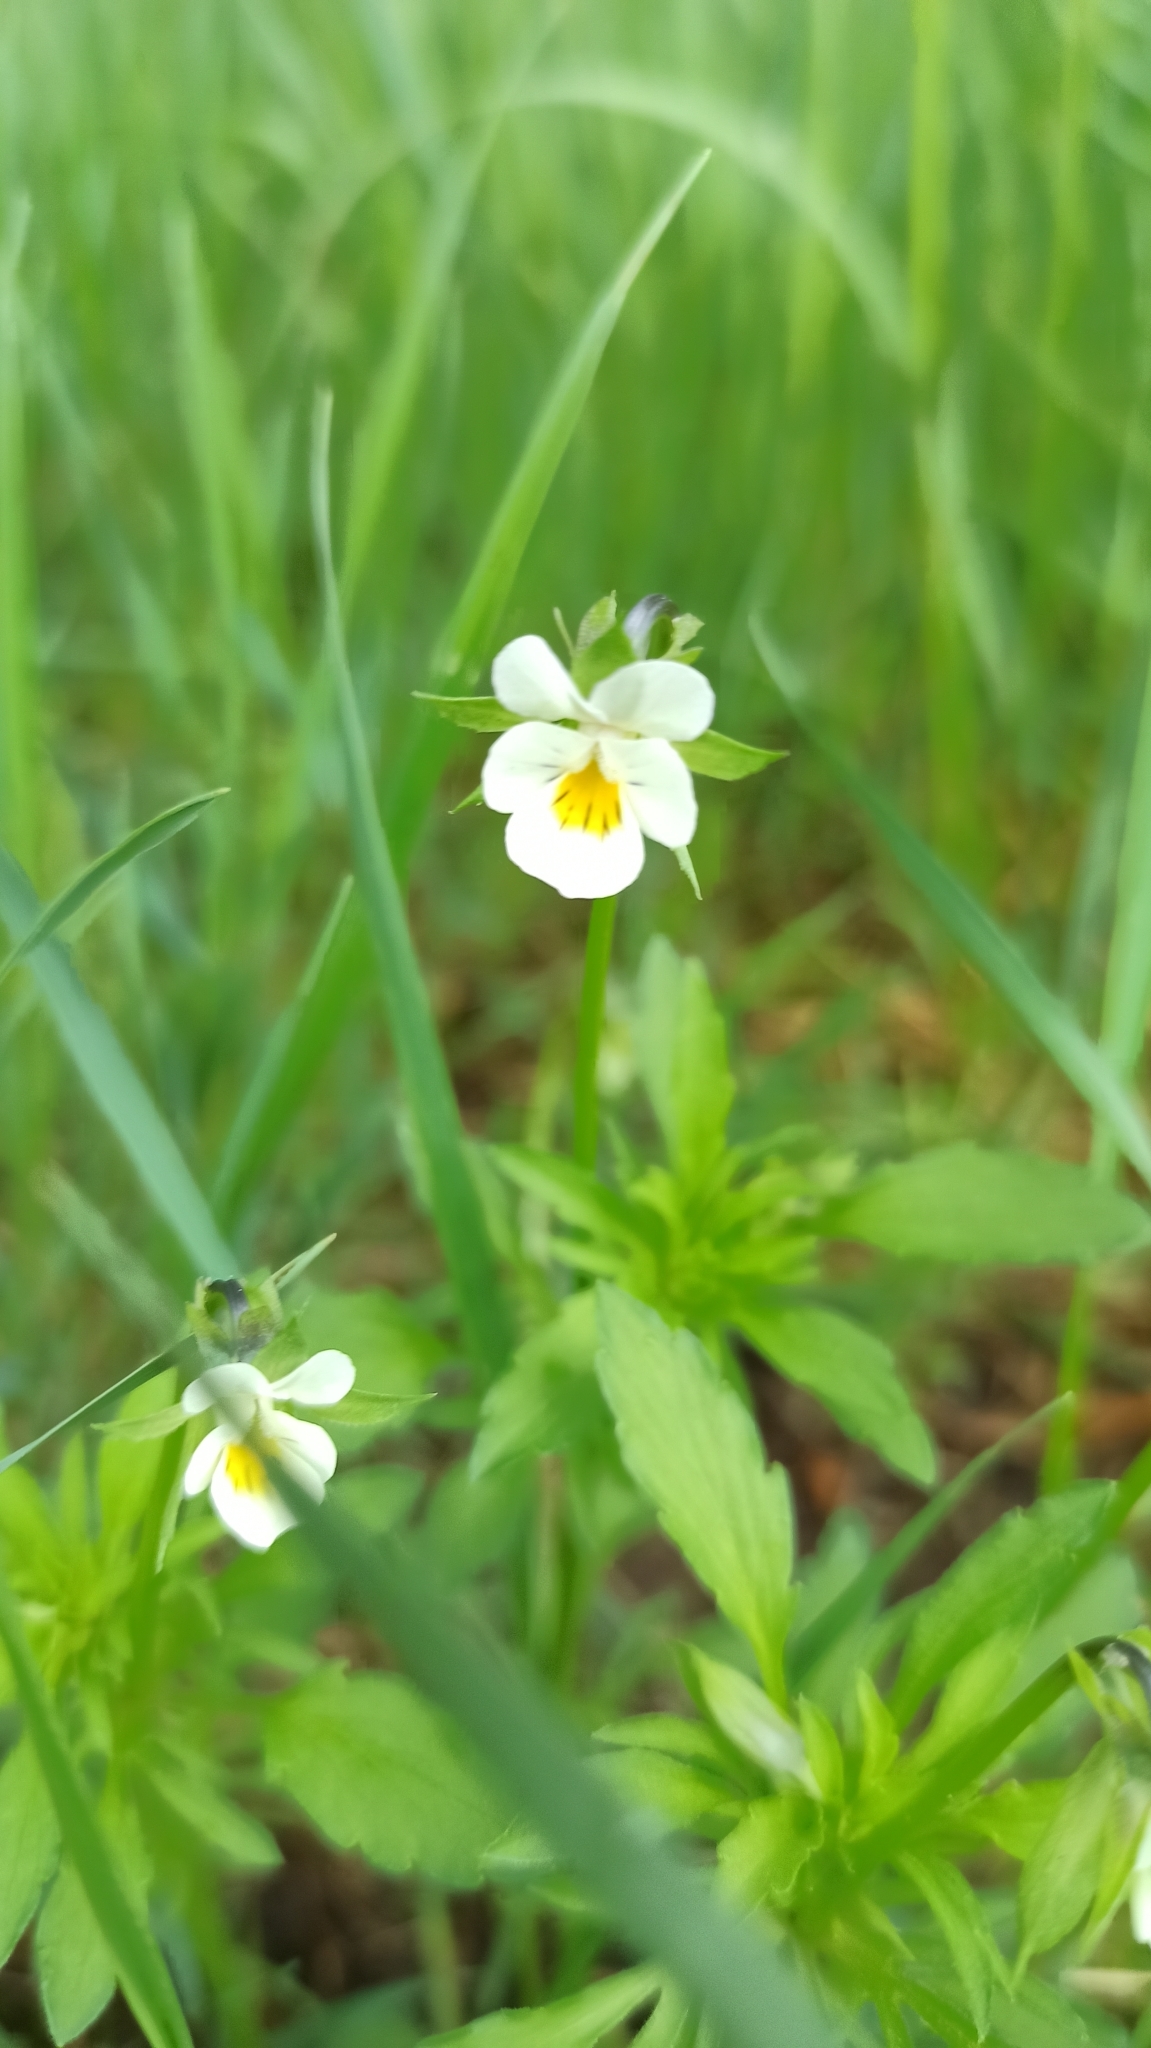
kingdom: Plantae
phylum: Tracheophyta
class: Magnoliopsida
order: Malpighiales
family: Violaceae
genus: Viola
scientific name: Viola arvensis
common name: Field pansy
